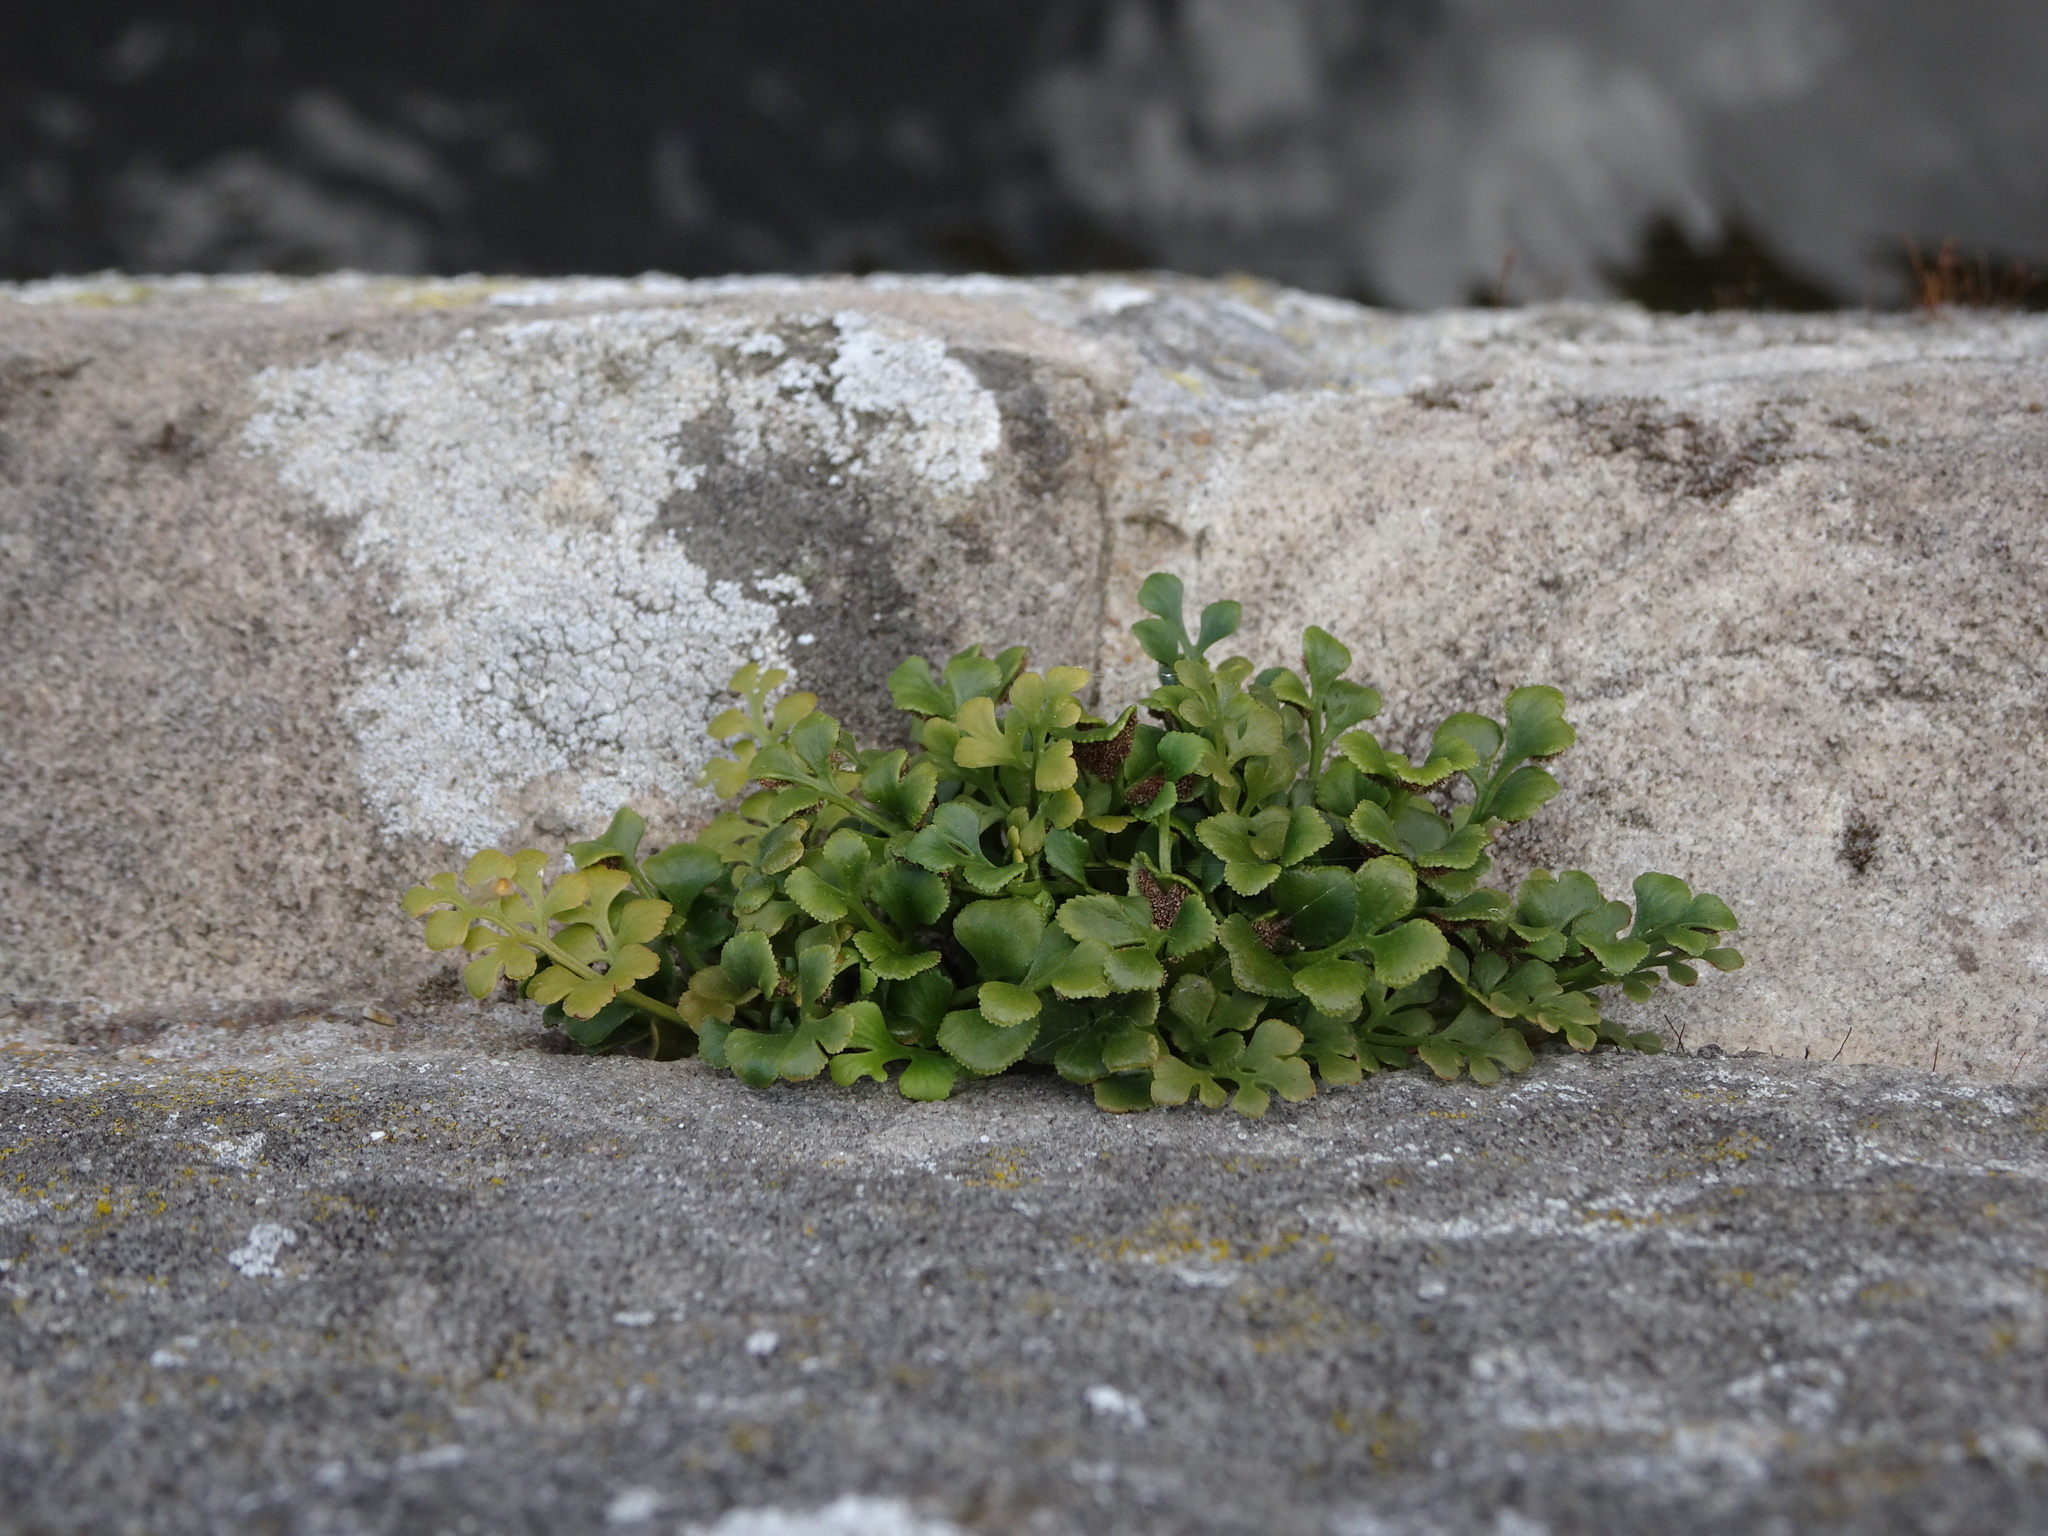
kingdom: Plantae
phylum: Tracheophyta
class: Polypodiopsida
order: Polypodiales
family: Aspleniaceae
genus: Asplenium
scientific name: Asplenium ruta-muraria
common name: Wall-rue
